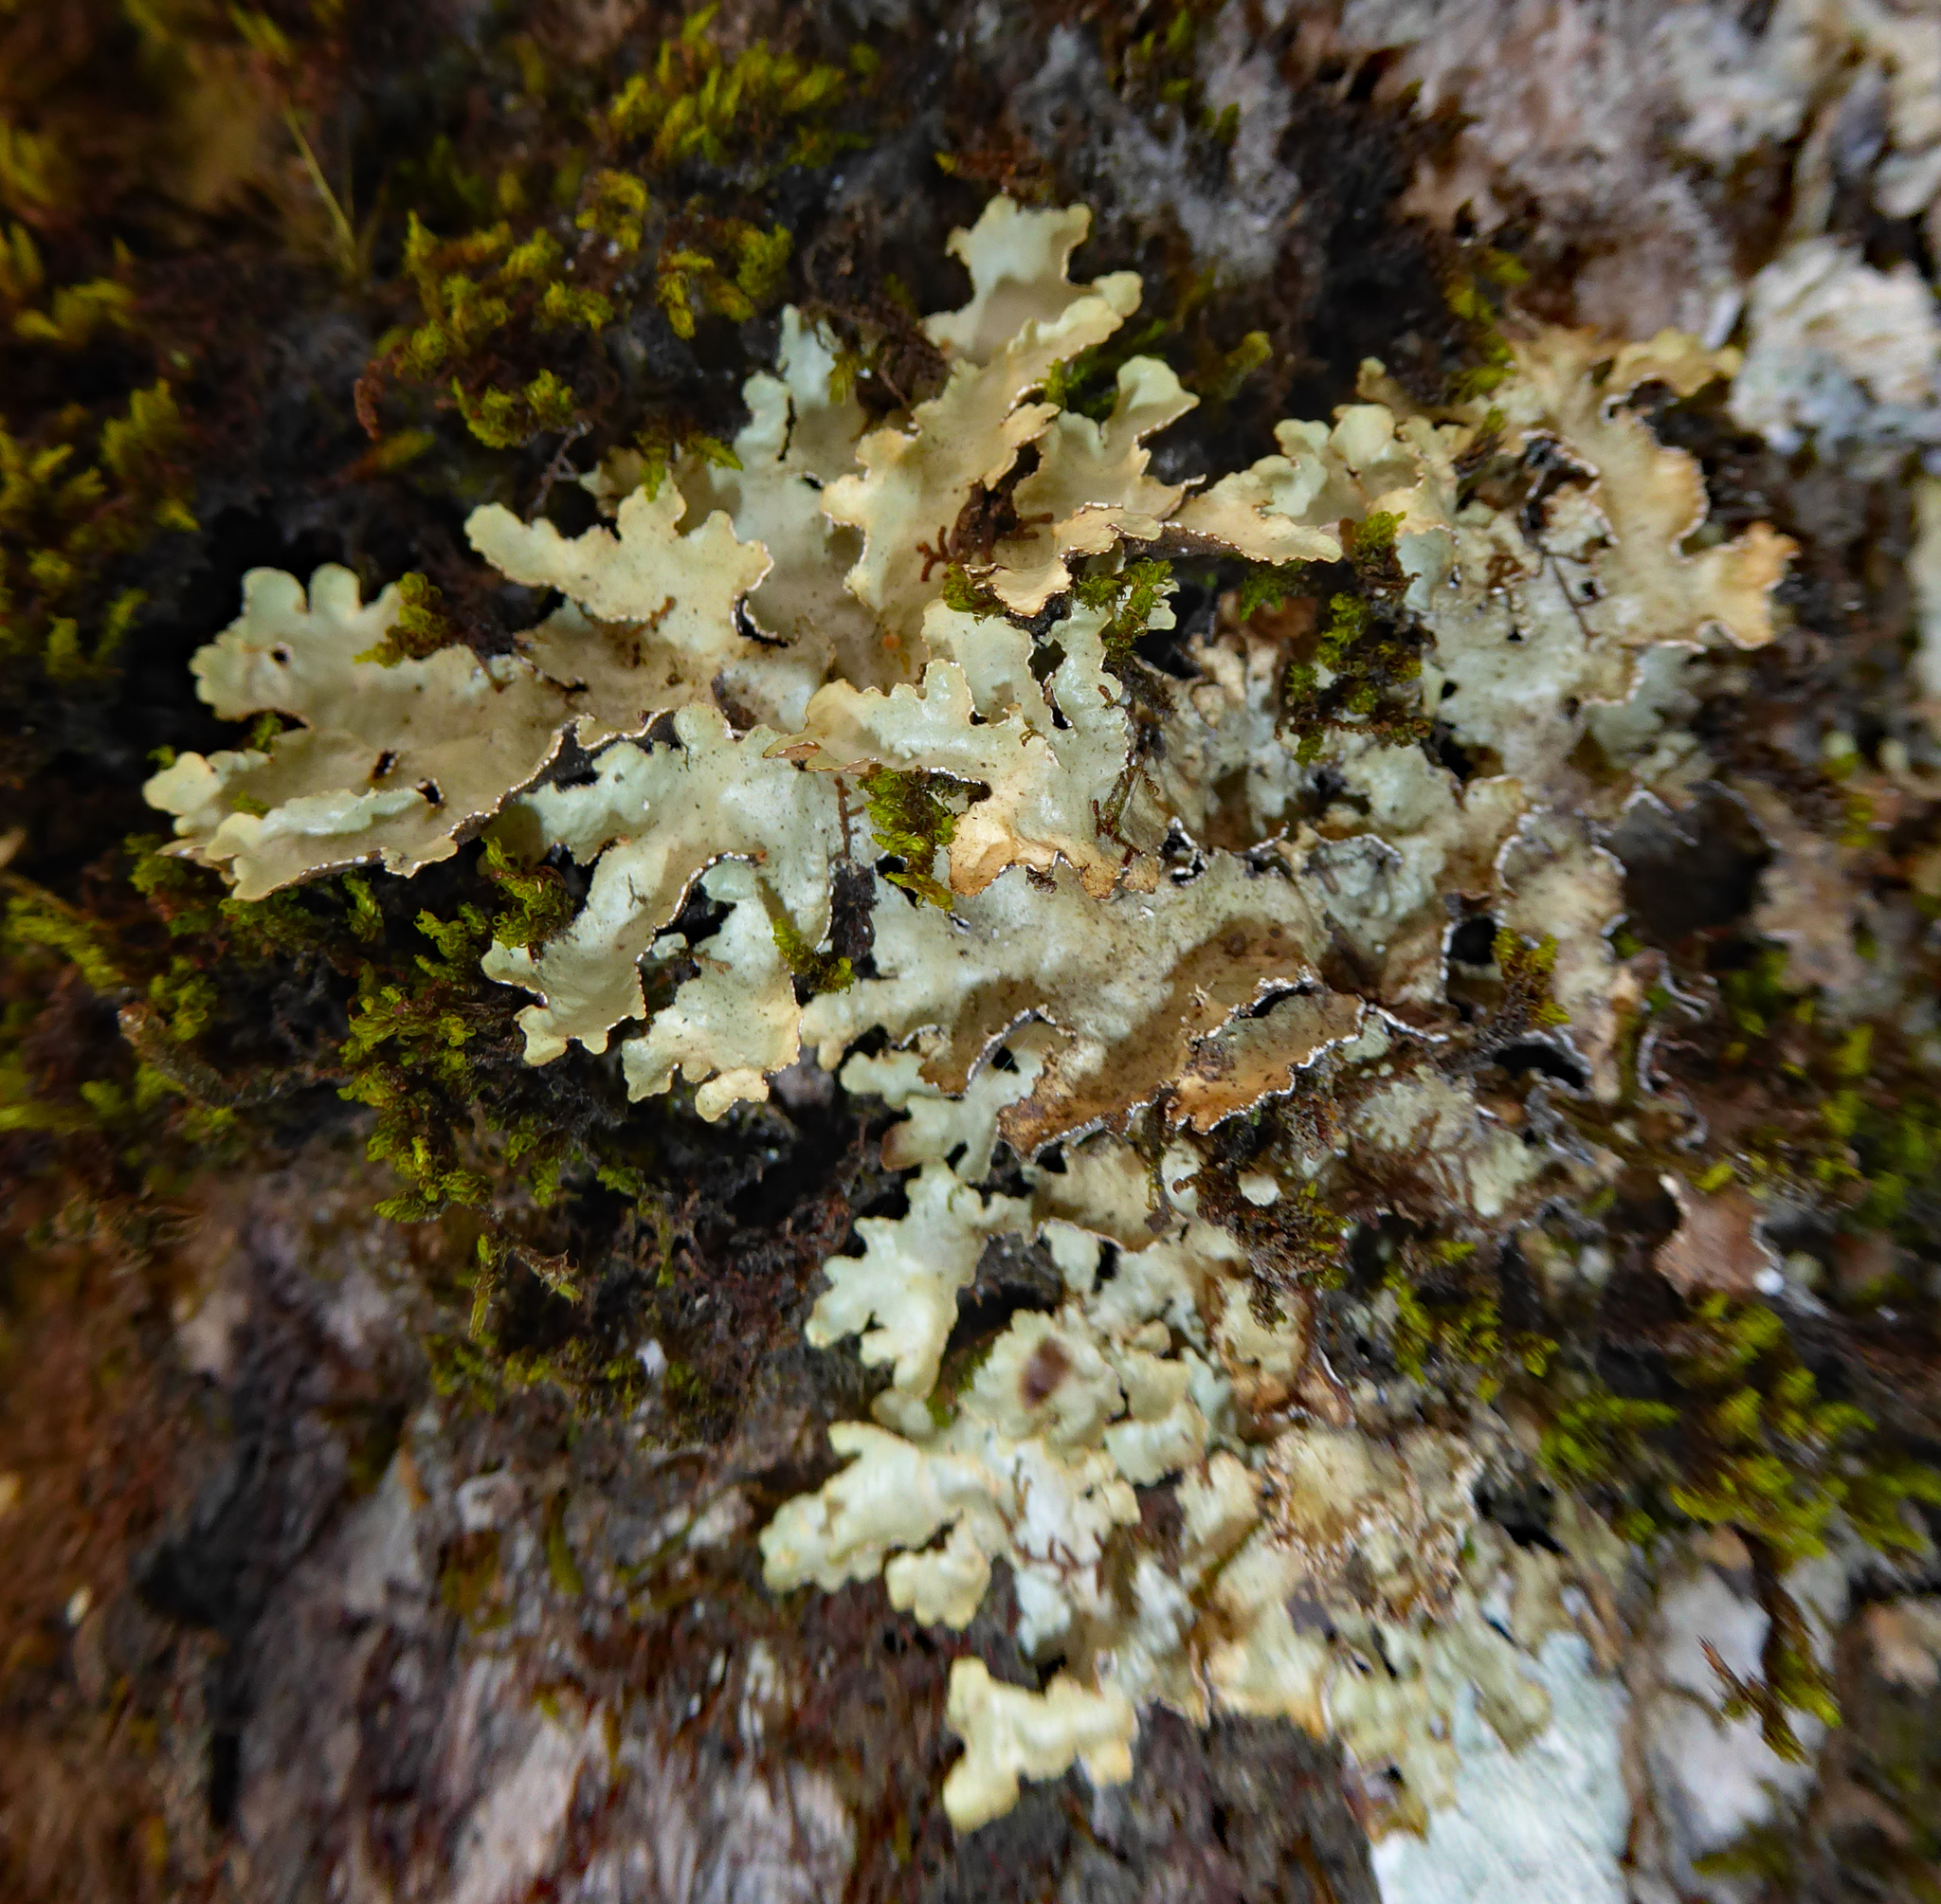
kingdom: Fungi
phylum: Ascomycota
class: Lecanoromycetes
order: Peltigerales
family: Lobariaceae
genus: Pseudocyphellaria
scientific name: Pseudocyphellaria glabra
